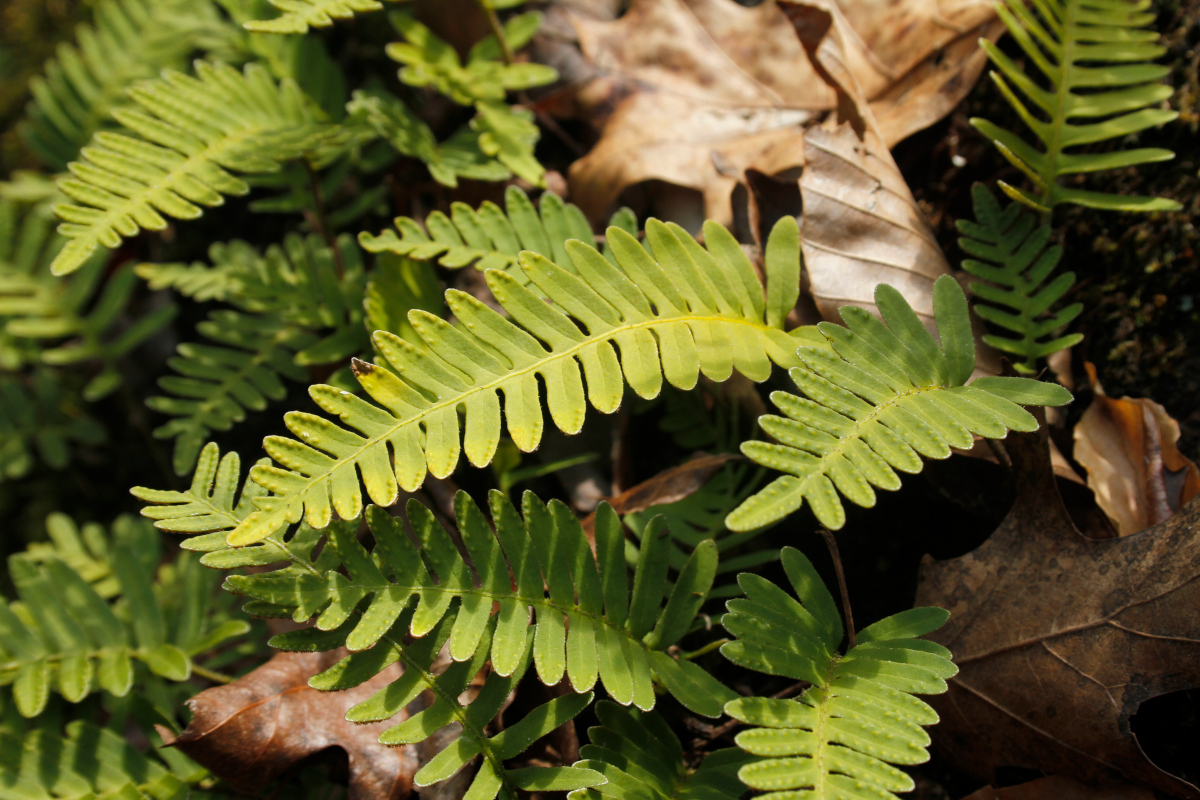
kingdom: Plantae
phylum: Tracheophyta
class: Polypodiopsida
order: Polypodiales
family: Polypodiaceae
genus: Pleopeltis
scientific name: Pleopeltis michauxiana
